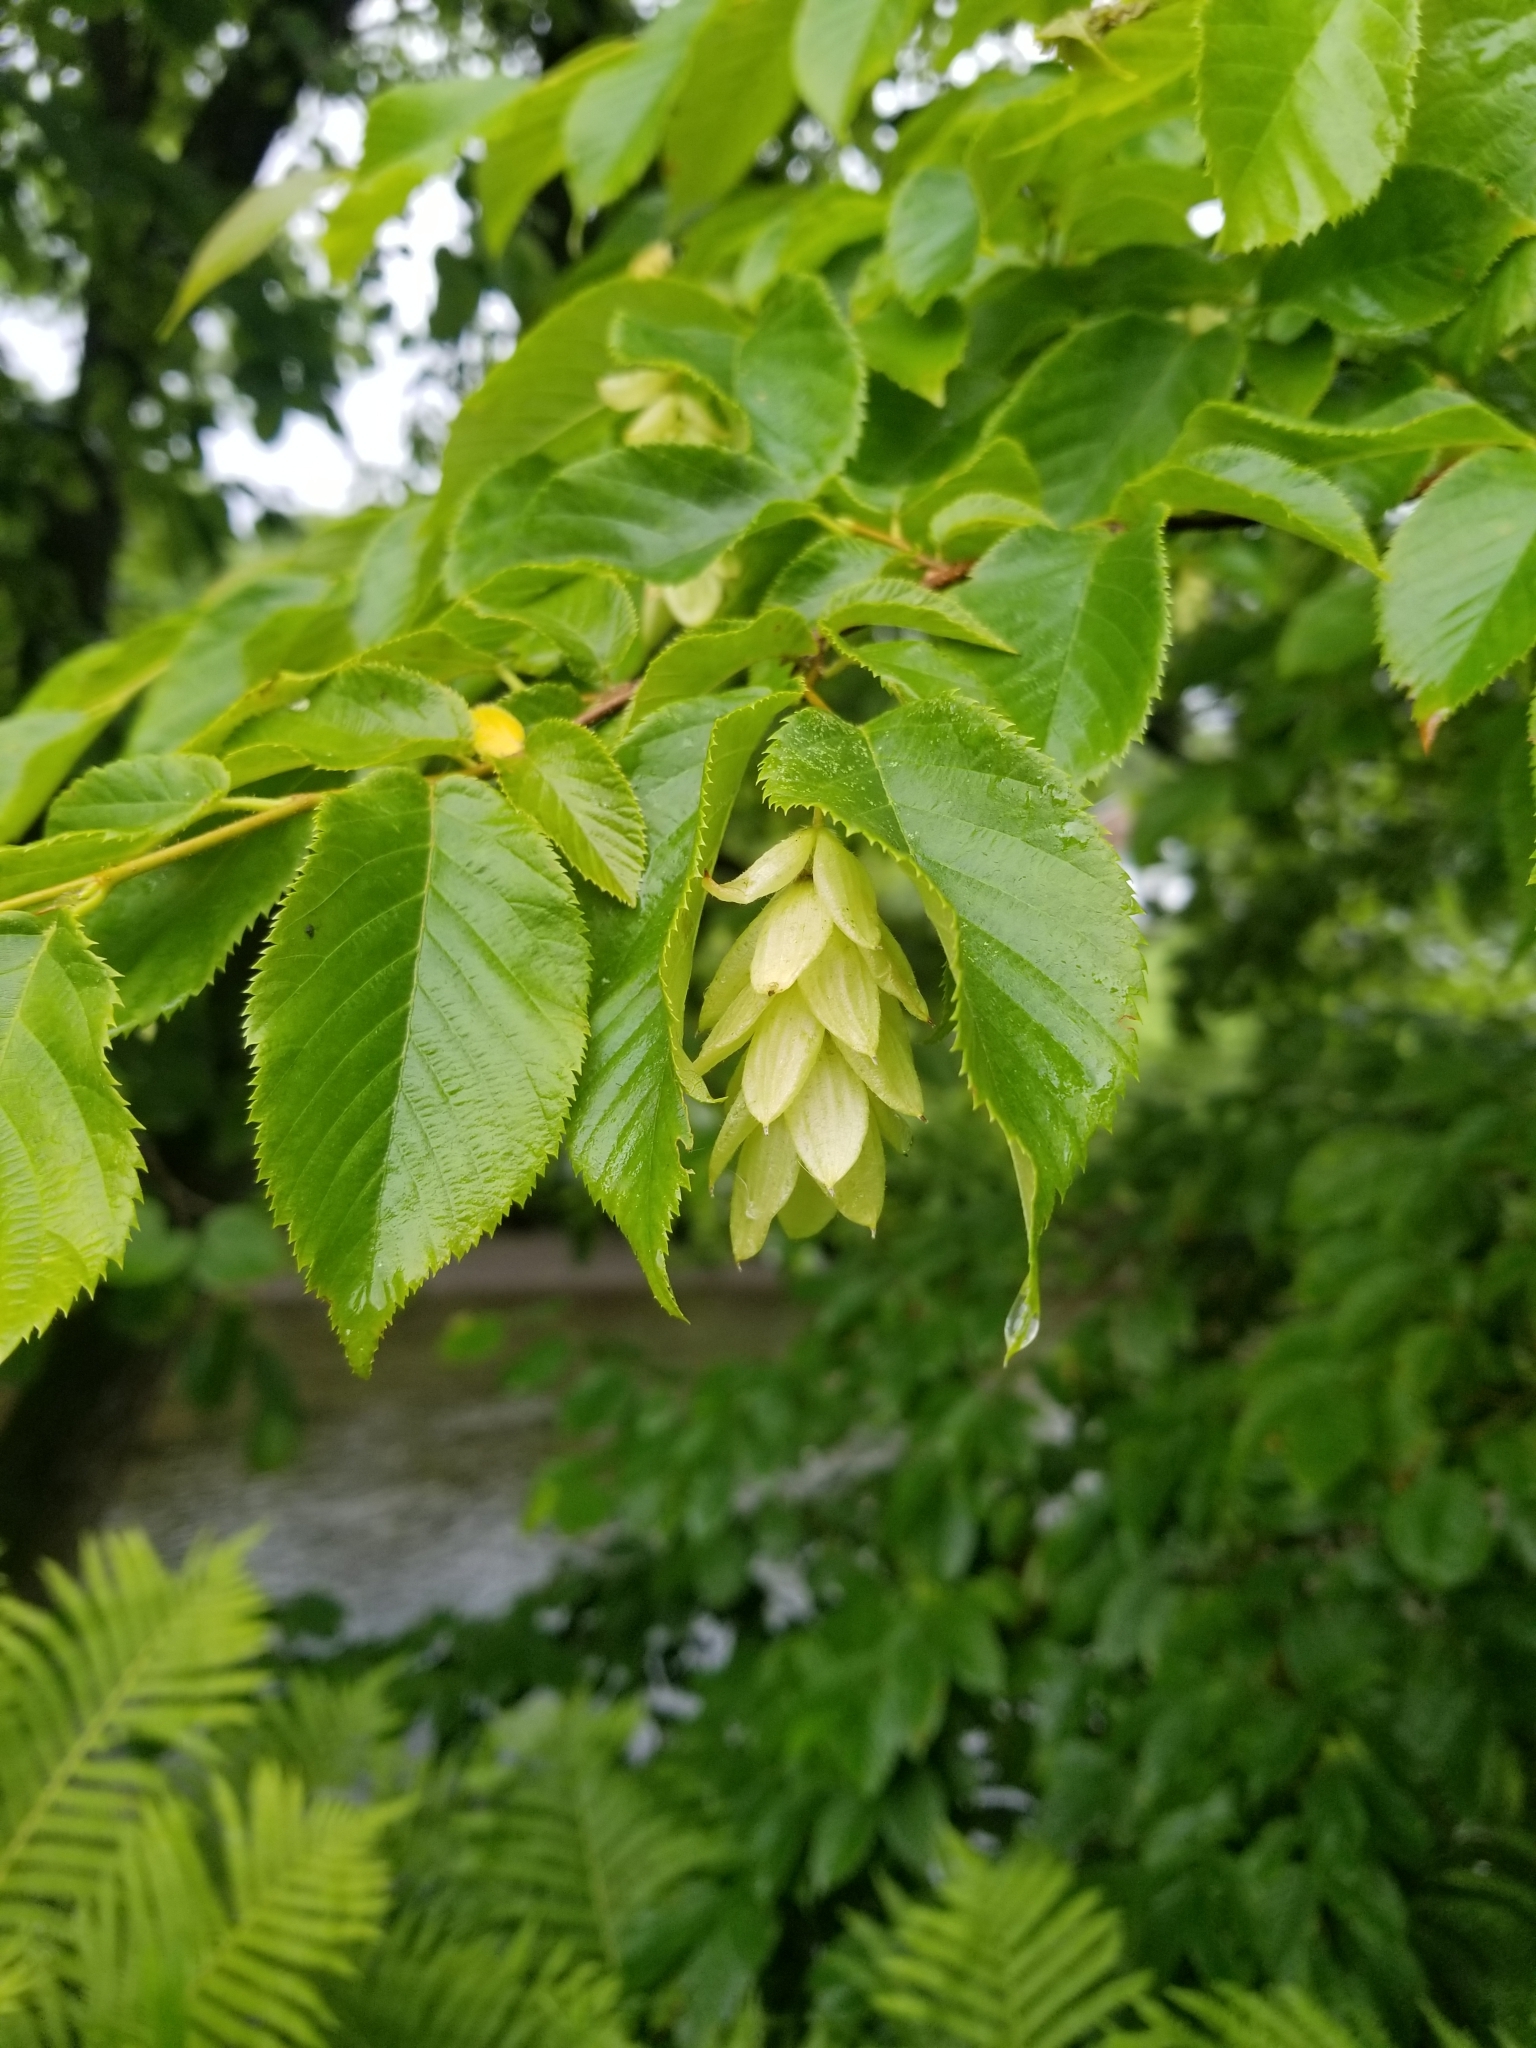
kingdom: Plantae
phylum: Tracheophyta
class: Magnoliopsida
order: Fagales
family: Betulaceae
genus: Ostrya
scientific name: Ostrya virginiana
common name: Ironwood
